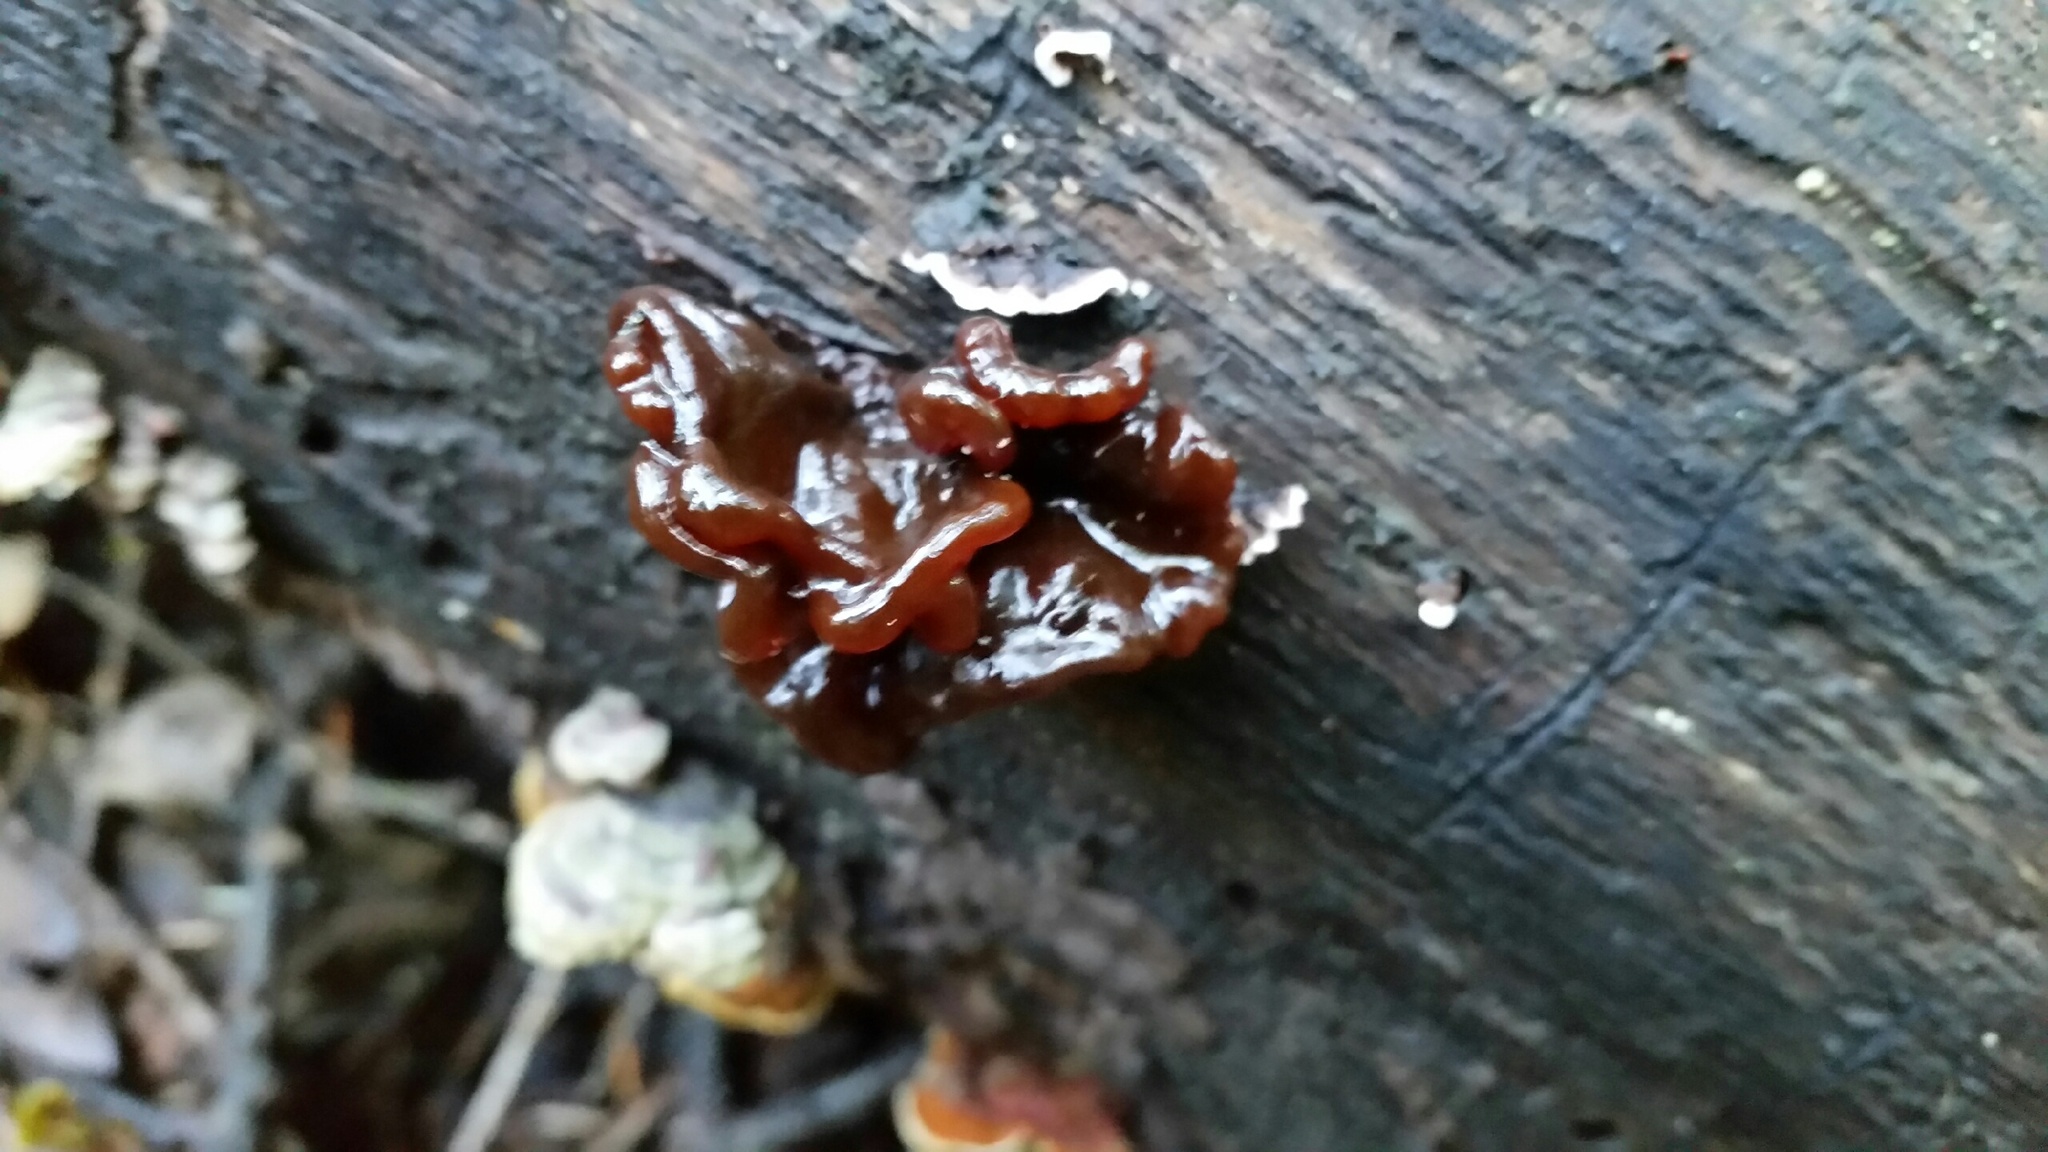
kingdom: Fungi
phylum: Basidiomycota
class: Tremellomycetes
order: Tremellales
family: Tremellaceae
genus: Phaeotremella
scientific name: Phaeotremella foliacea
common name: Leafy brain
